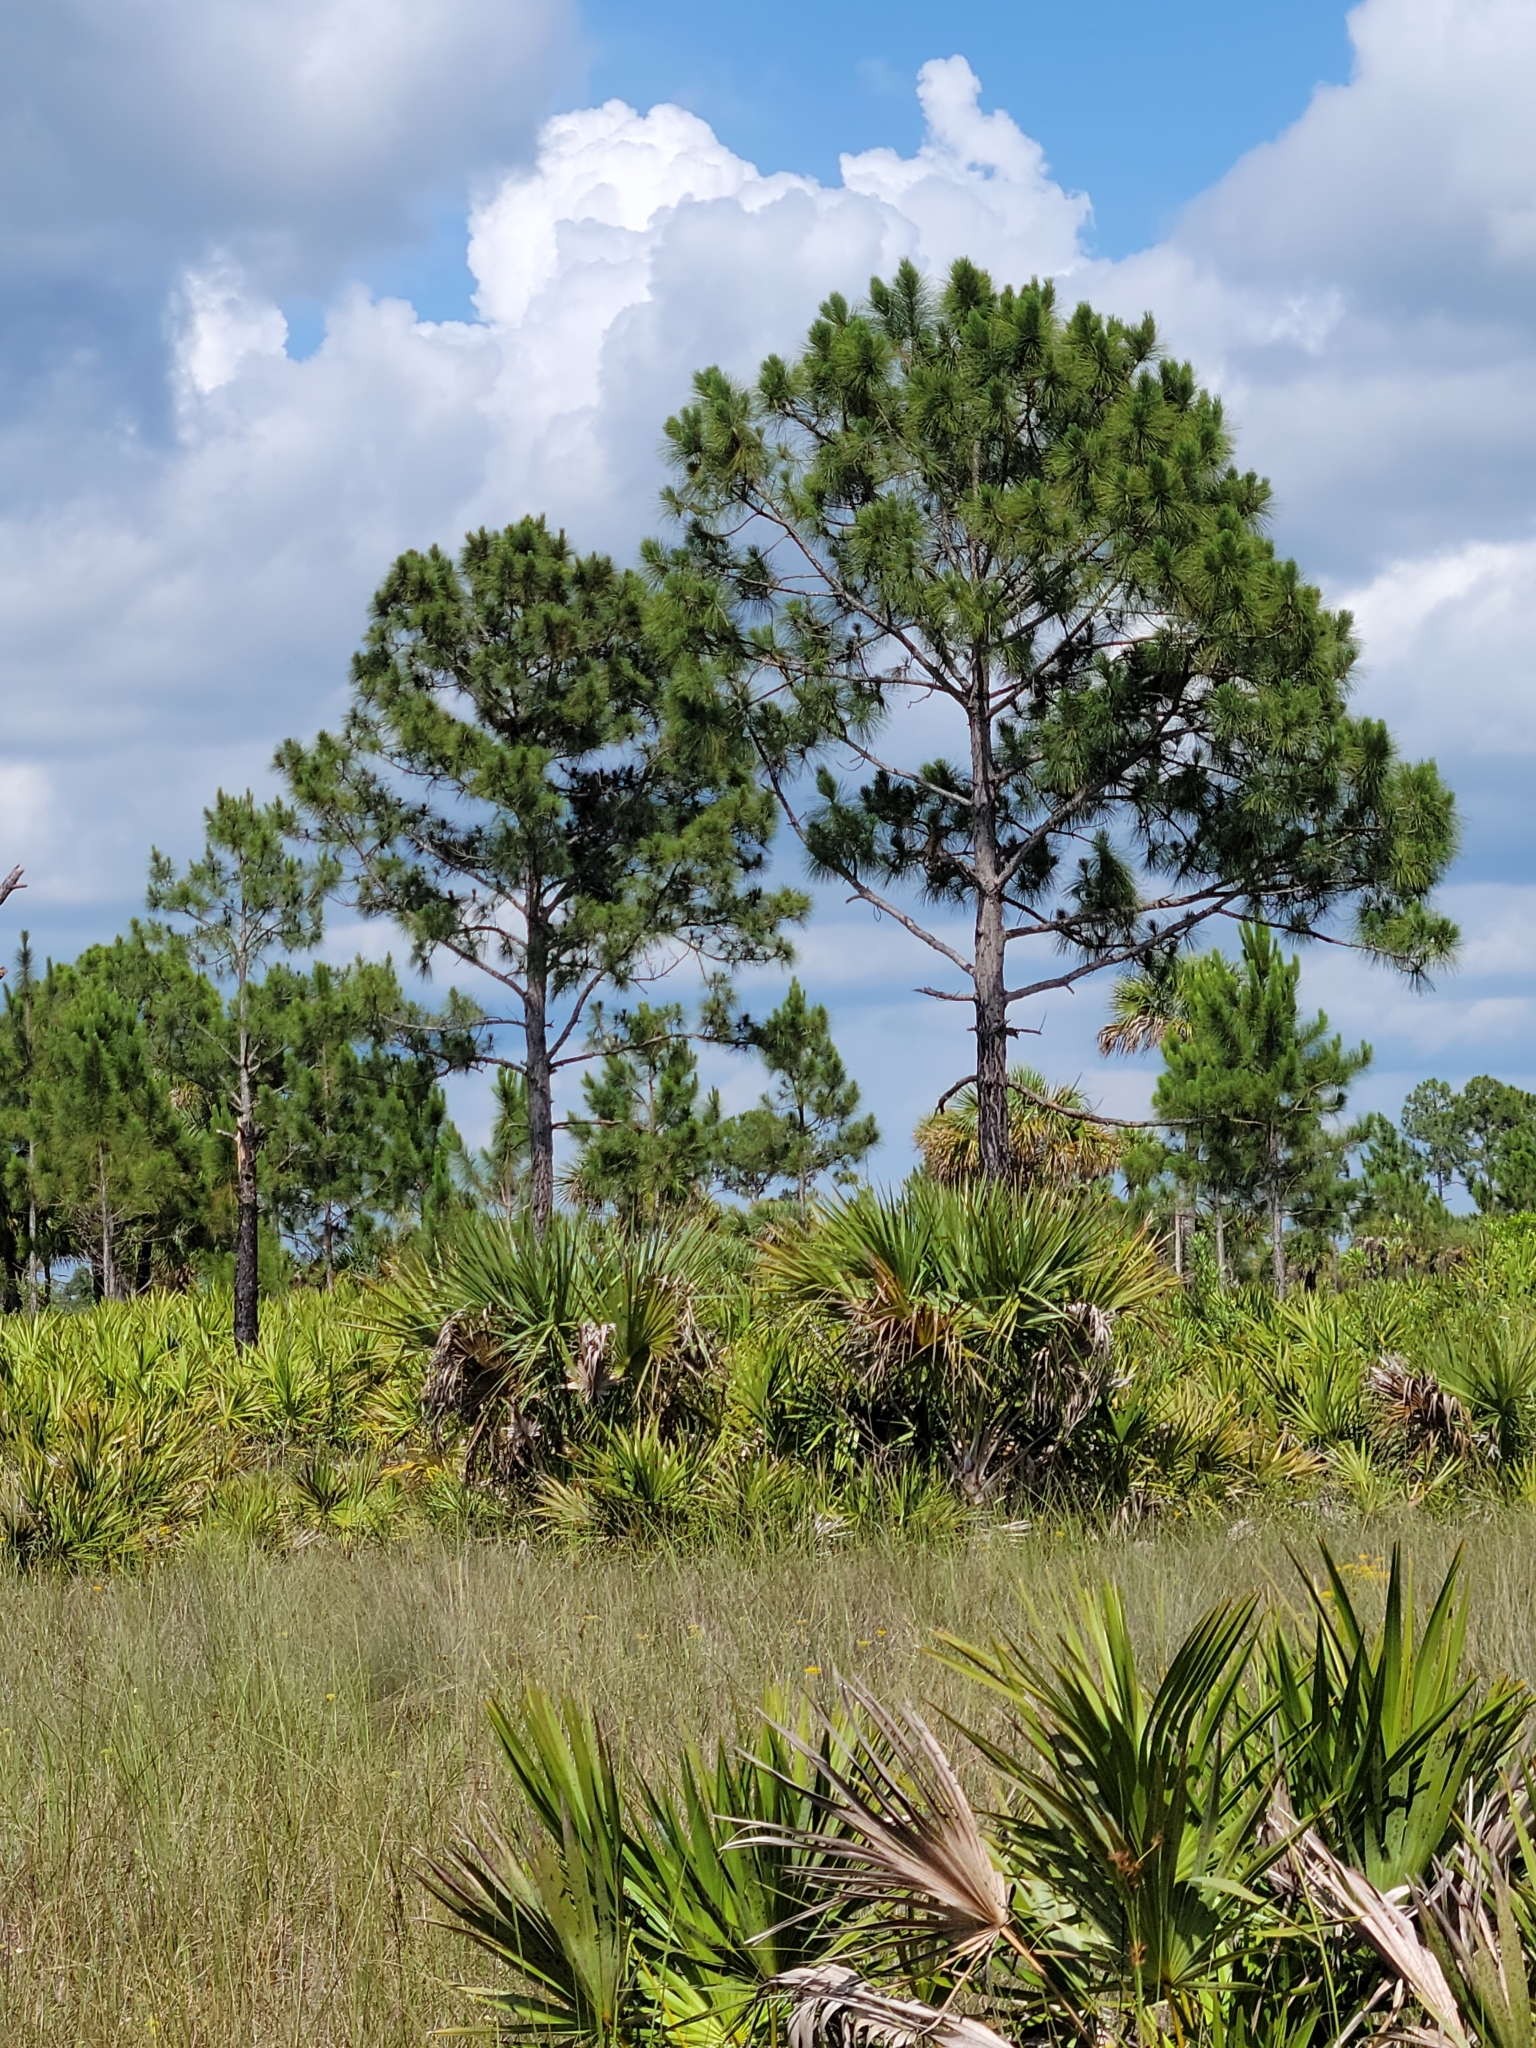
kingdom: Plantae
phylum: Tracheophyta
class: Pinopsida
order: Pinales
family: Pinaceae
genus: Pinus
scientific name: Pinus elliottii
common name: Slash pine
